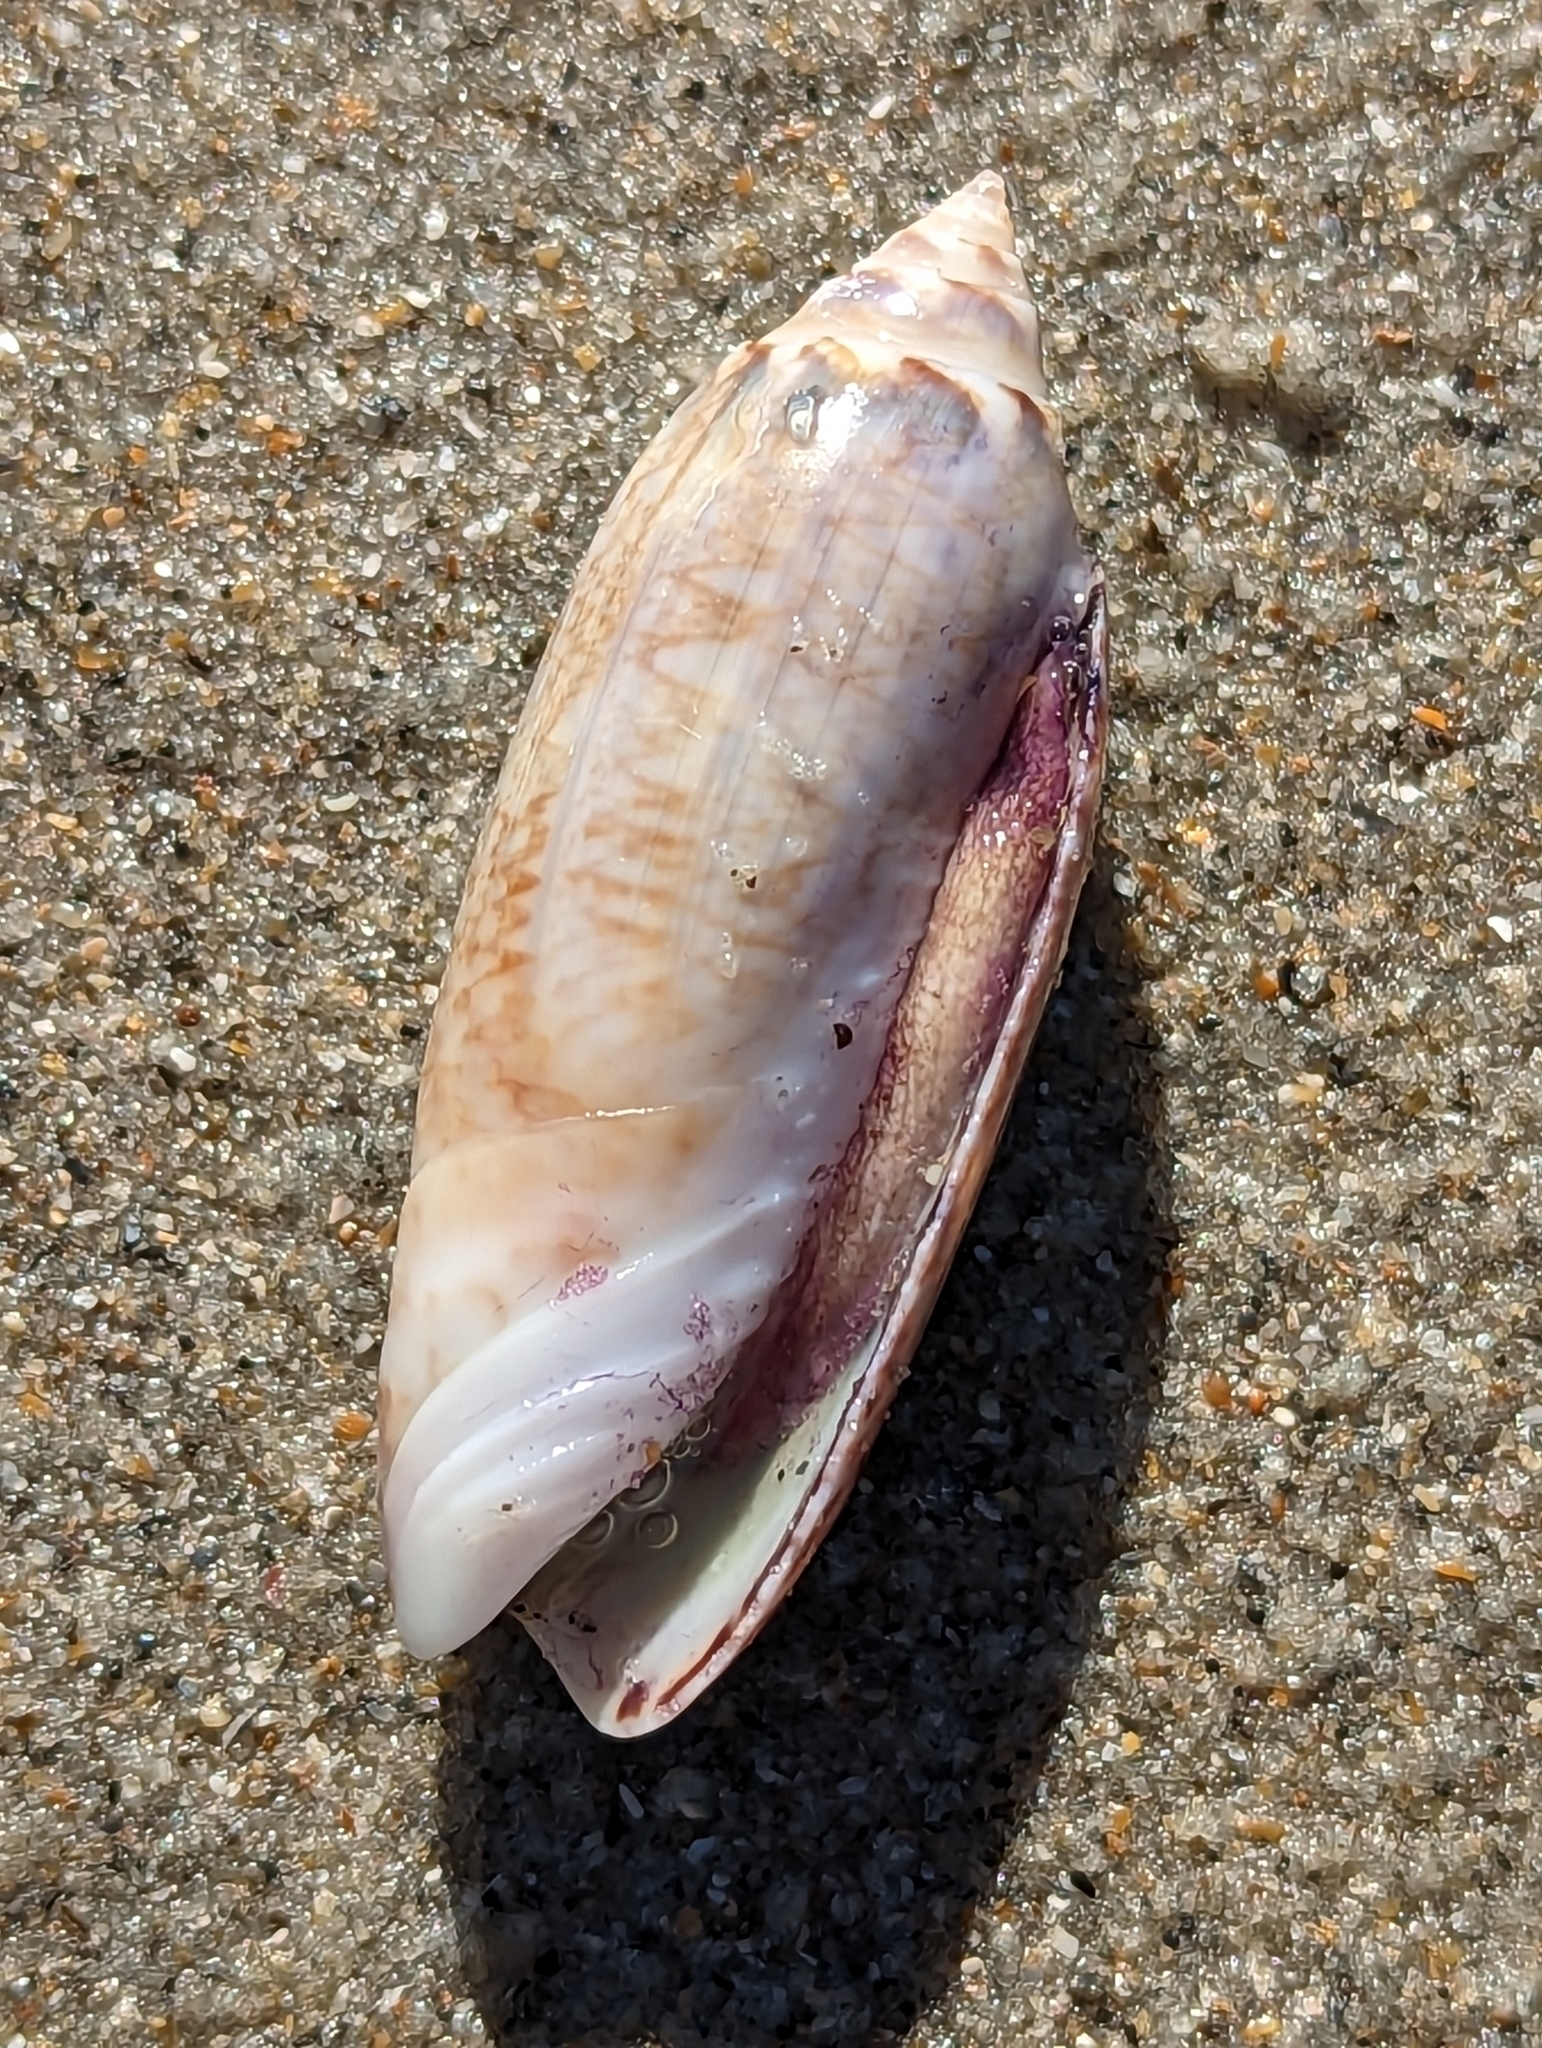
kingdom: Animalia
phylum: Mollusca
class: Gastropoda
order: Neogastropoda
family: Olividae
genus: Oliva
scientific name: Oliva sayana
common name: Lettered olive
